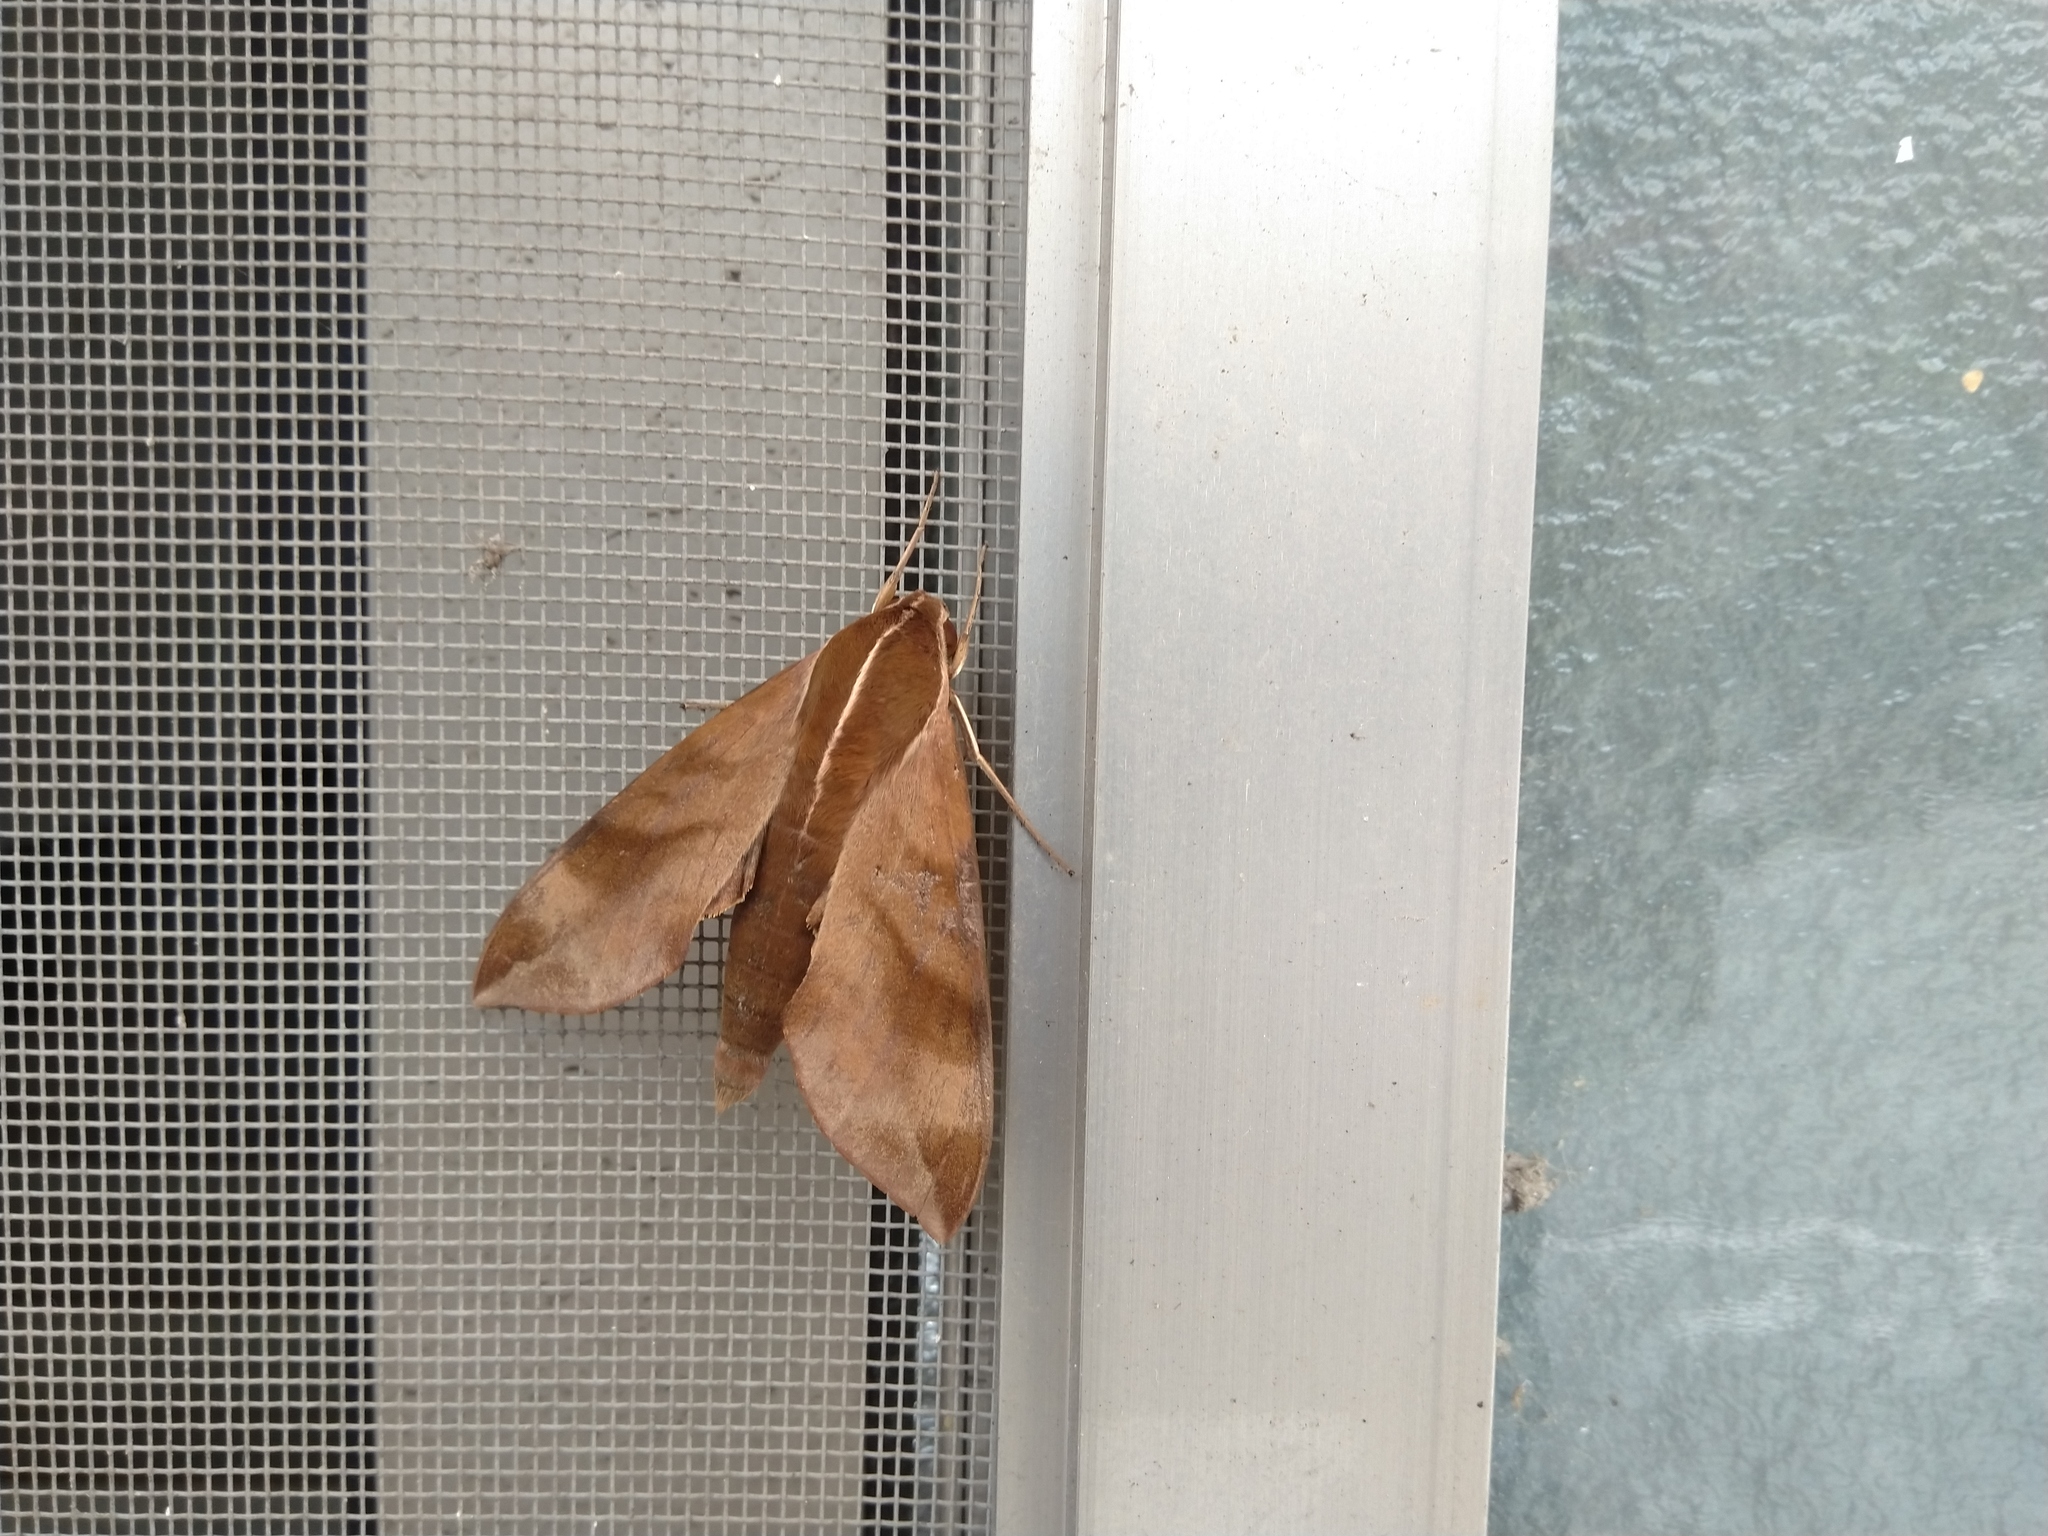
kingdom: Animalia
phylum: Arthropoda
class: Insecta
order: Lepidoptera
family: Sphingidae
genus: Ampelophaga
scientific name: Ampelophaga rubiginosa
